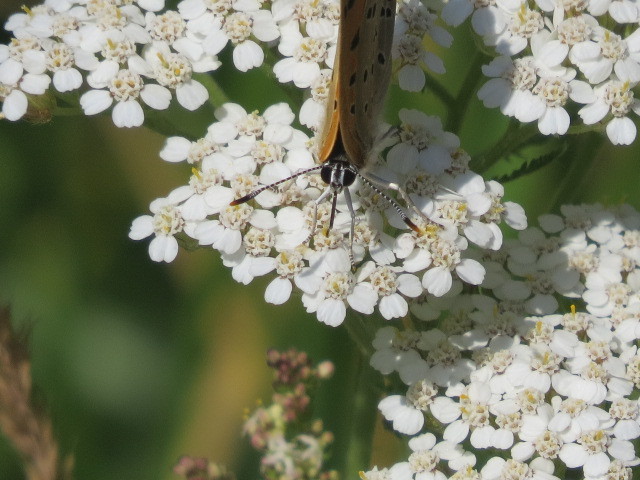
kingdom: Animalia
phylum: Arthropoda
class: Insecta
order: Lepidoptera
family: Lycaenidae
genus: Lycaena
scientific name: Lycaena alciphron
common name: Purple-shot copper
